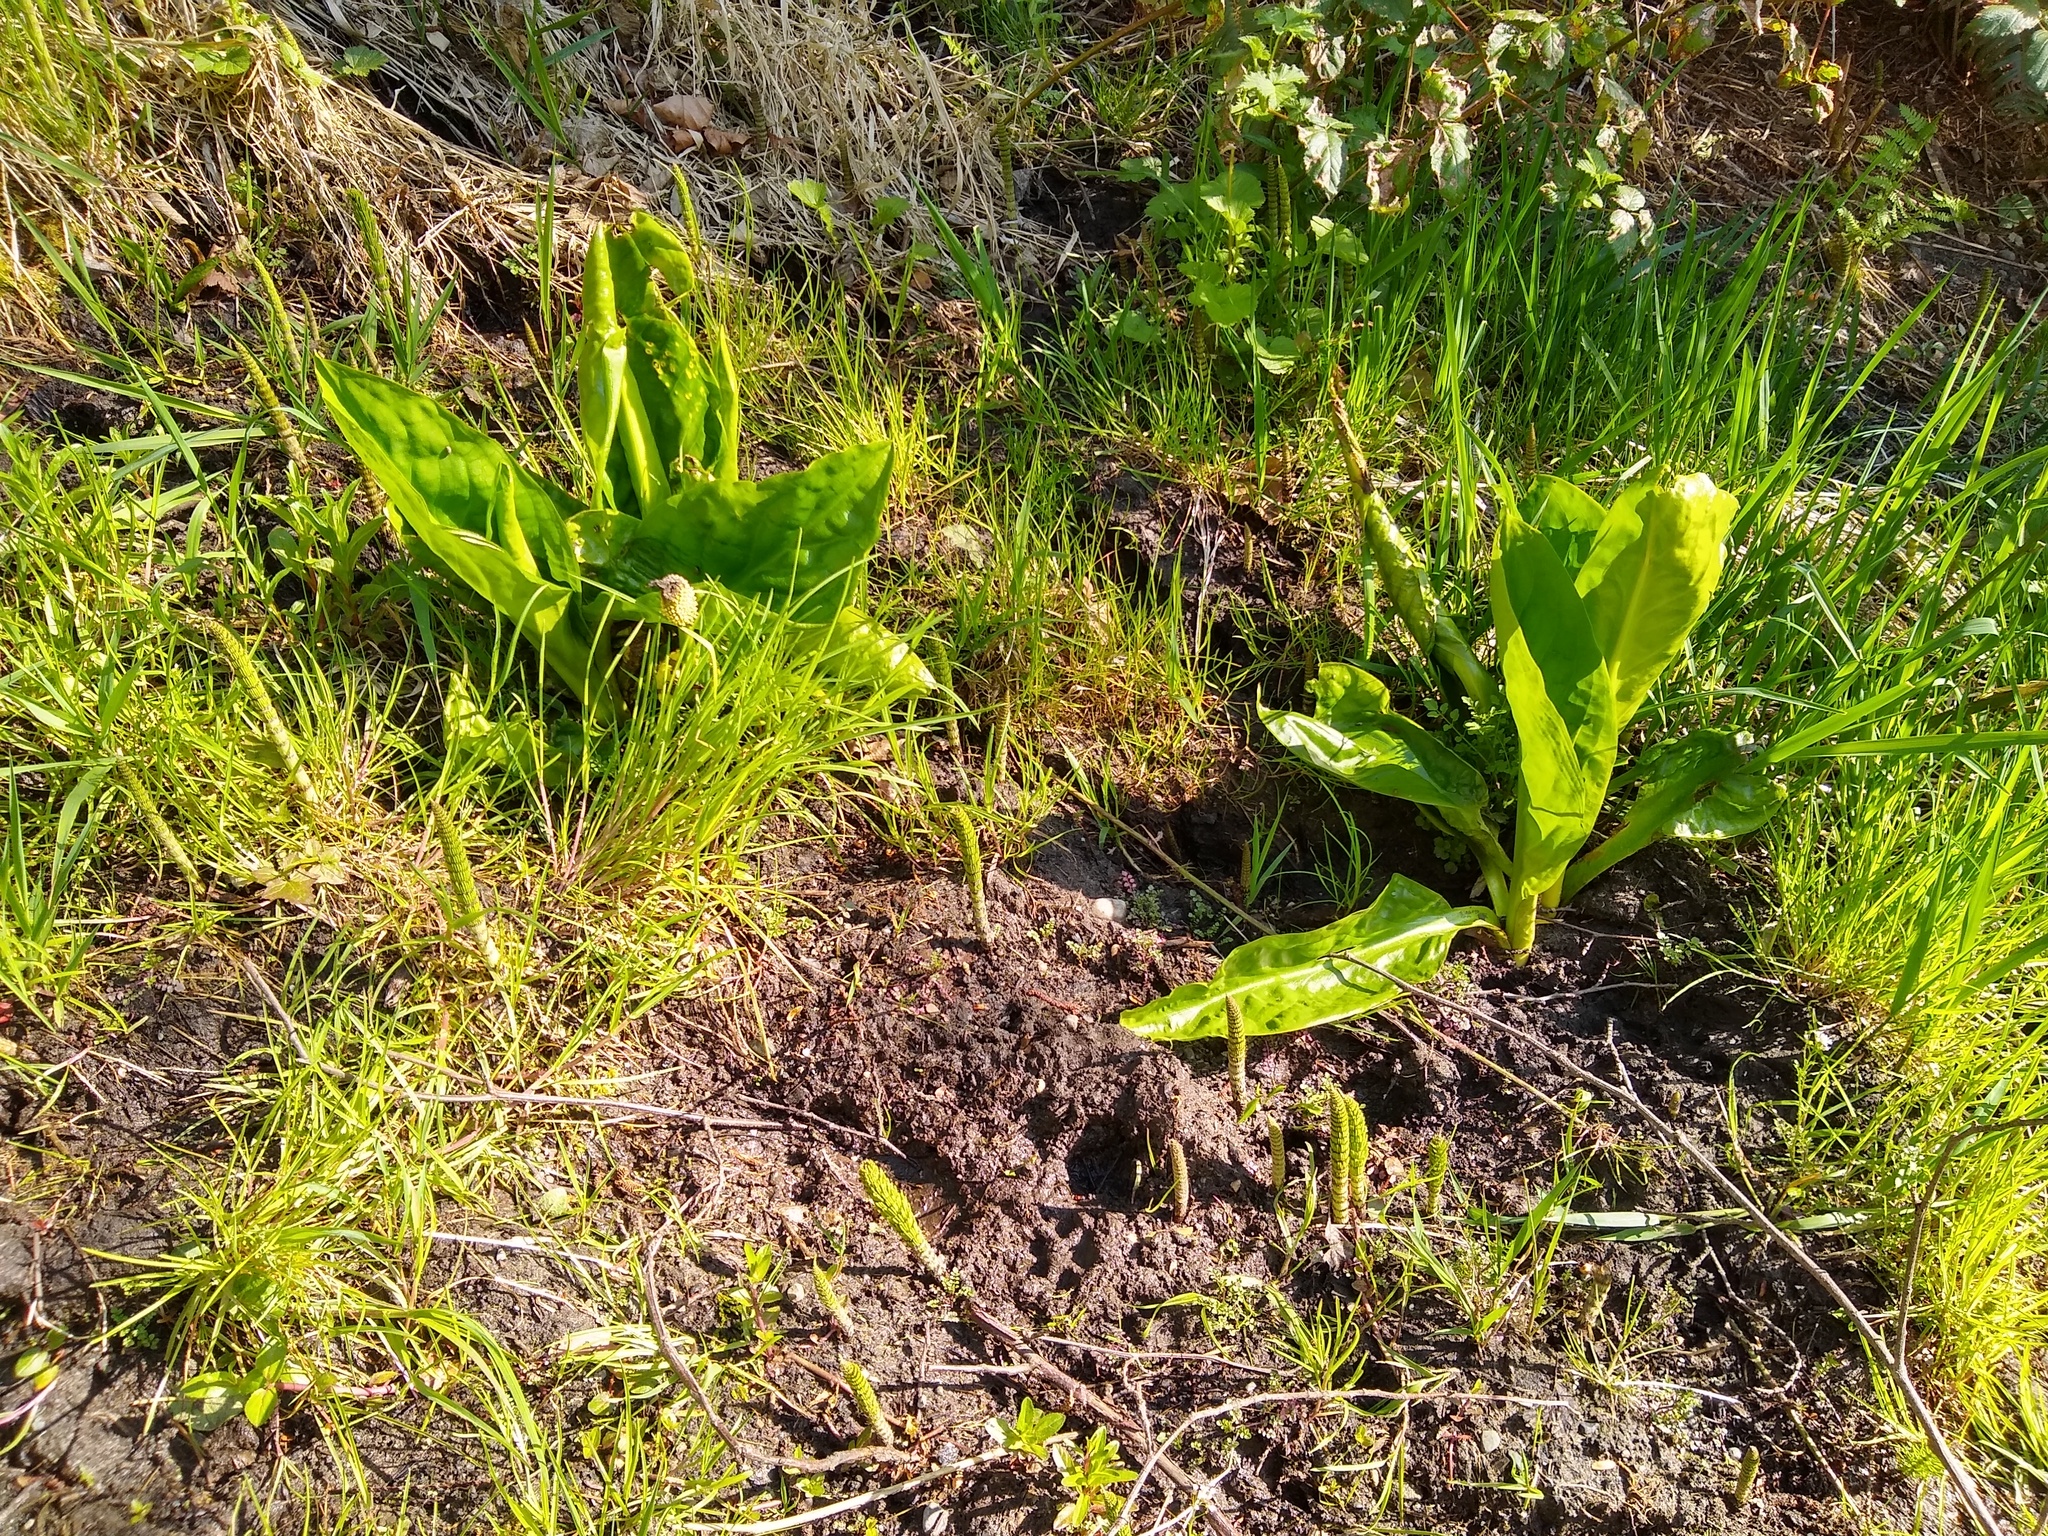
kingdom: Plantae
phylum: Tracheophyta
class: Liliopsida
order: Alismatales
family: Araceae
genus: Lysichiton
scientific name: Lysichiton americanus
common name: American skunk cabbage
